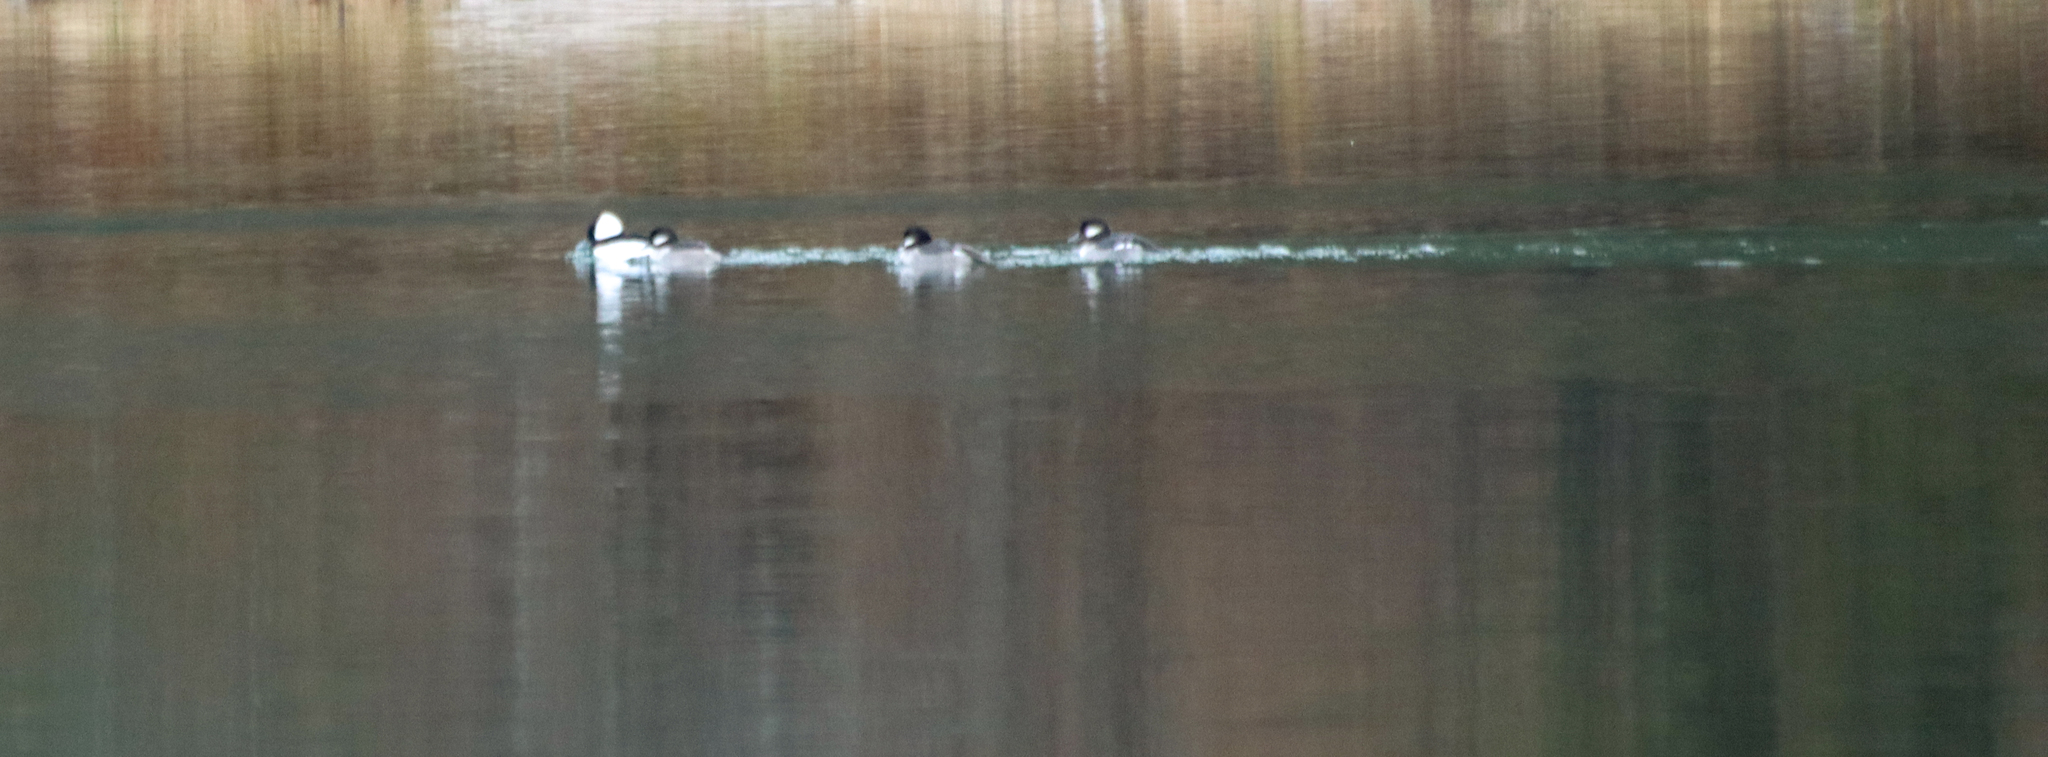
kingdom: Animalia
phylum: Chordata
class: Aves
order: Anseriformes
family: Anatidae
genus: Bucephala
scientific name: Bucephala albeola
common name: Bufflehead
